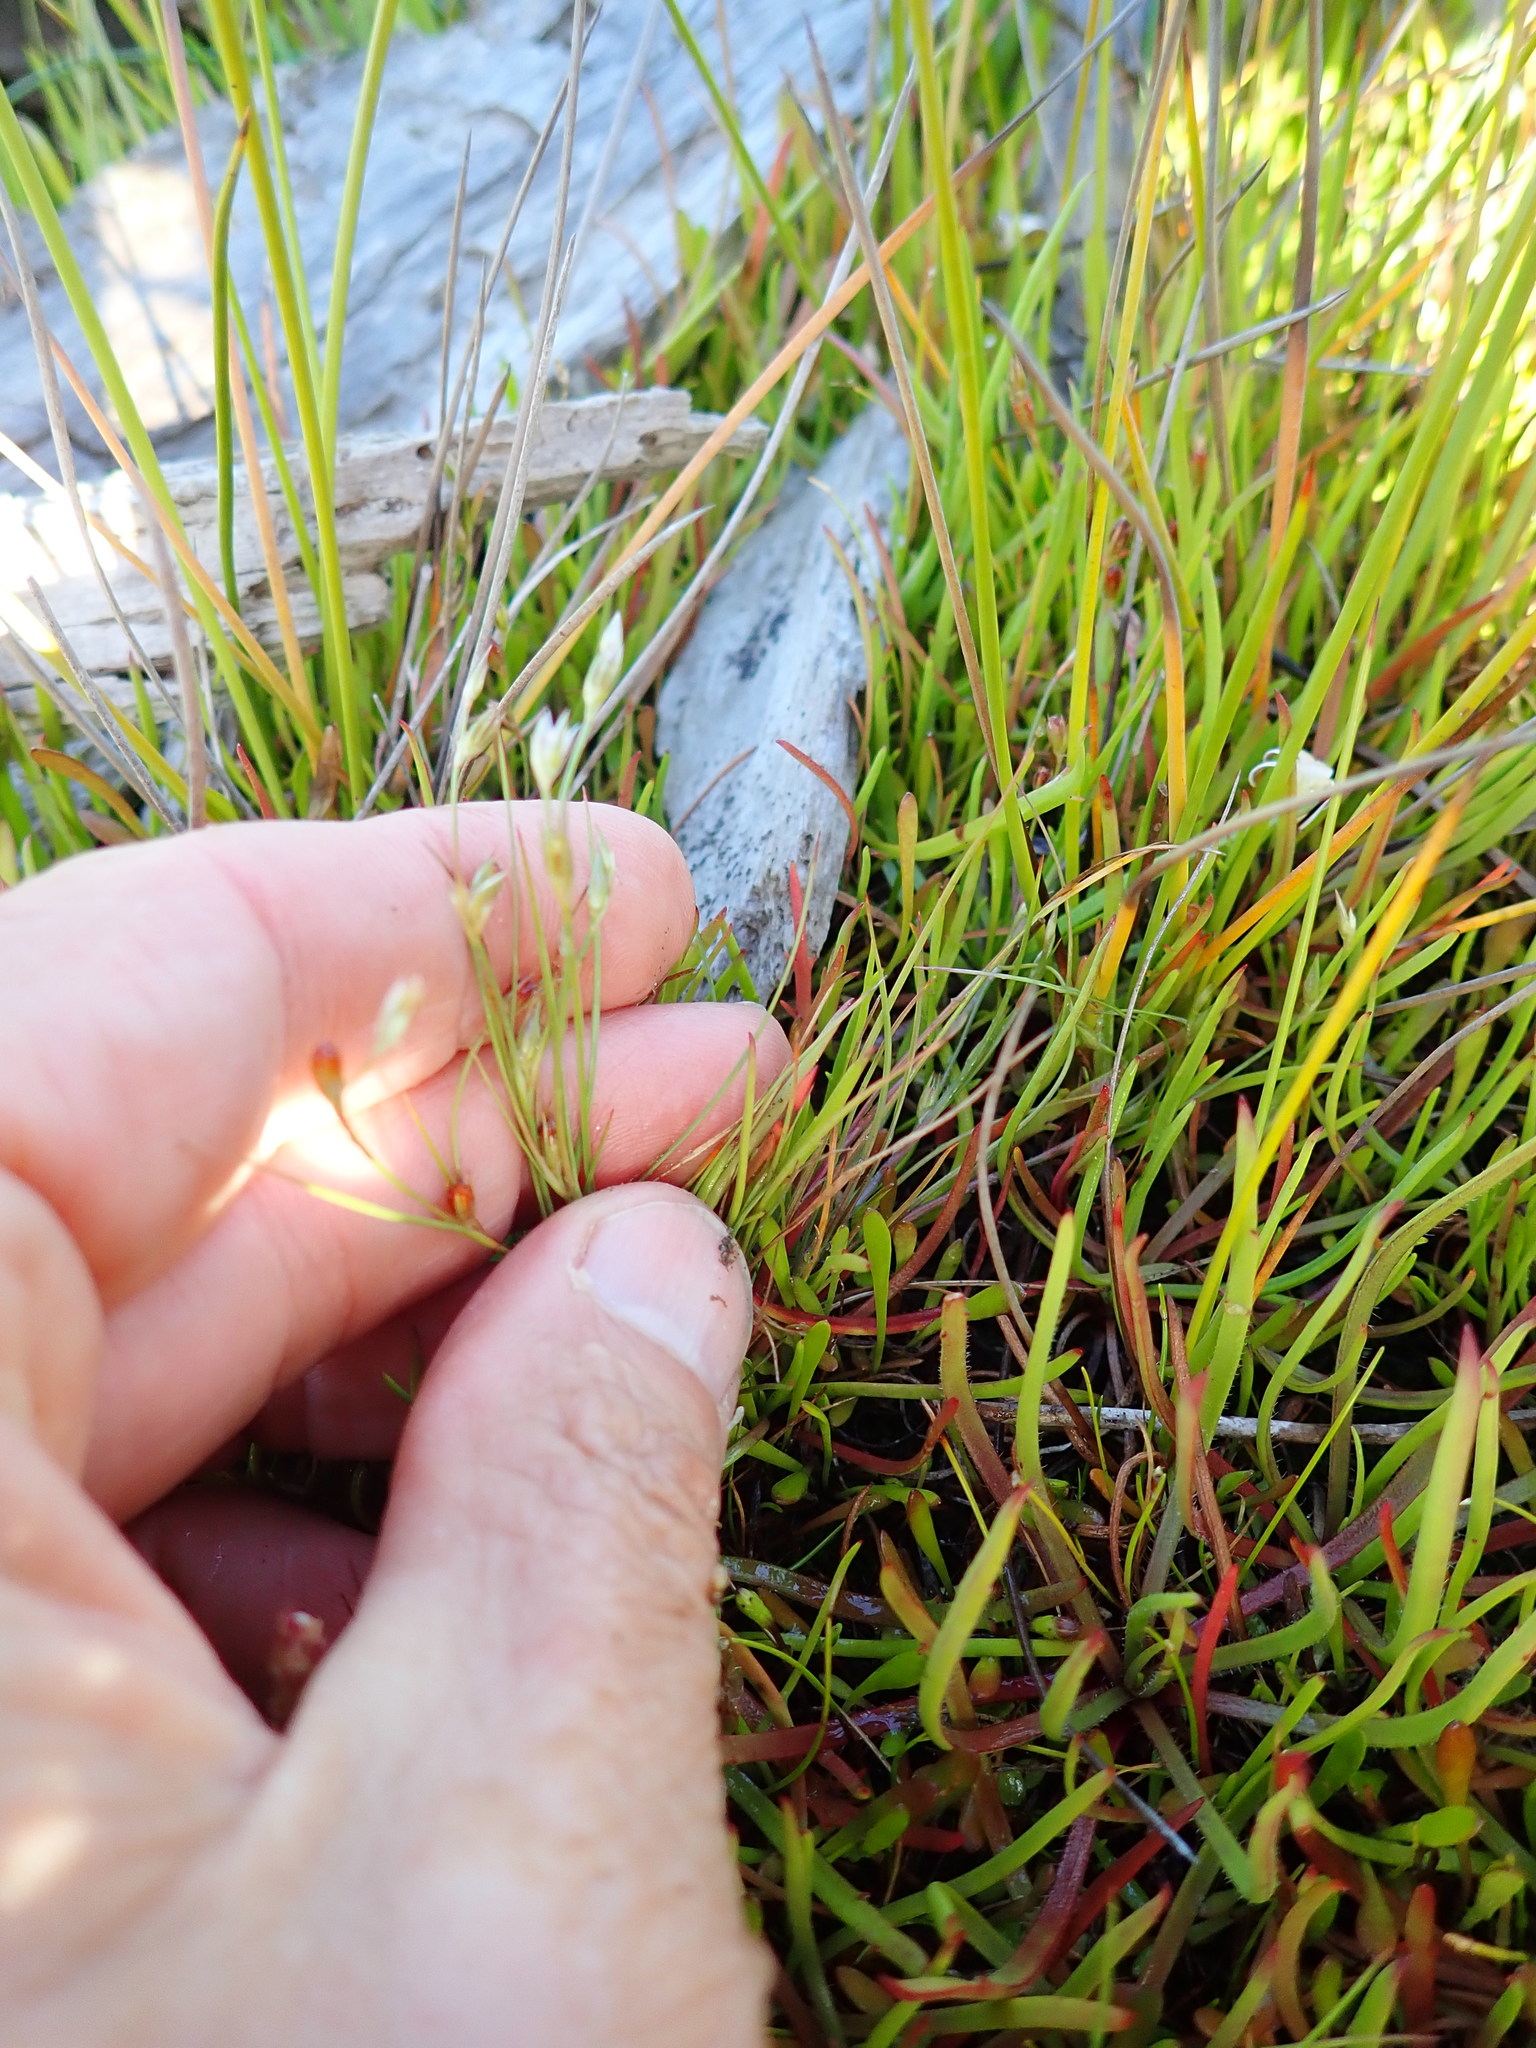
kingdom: Plantae
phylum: Tracheophyta
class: Liliopsida
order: Poales
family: Juncaceae
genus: Juncus
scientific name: Juncus bufonius
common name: Toad rush
